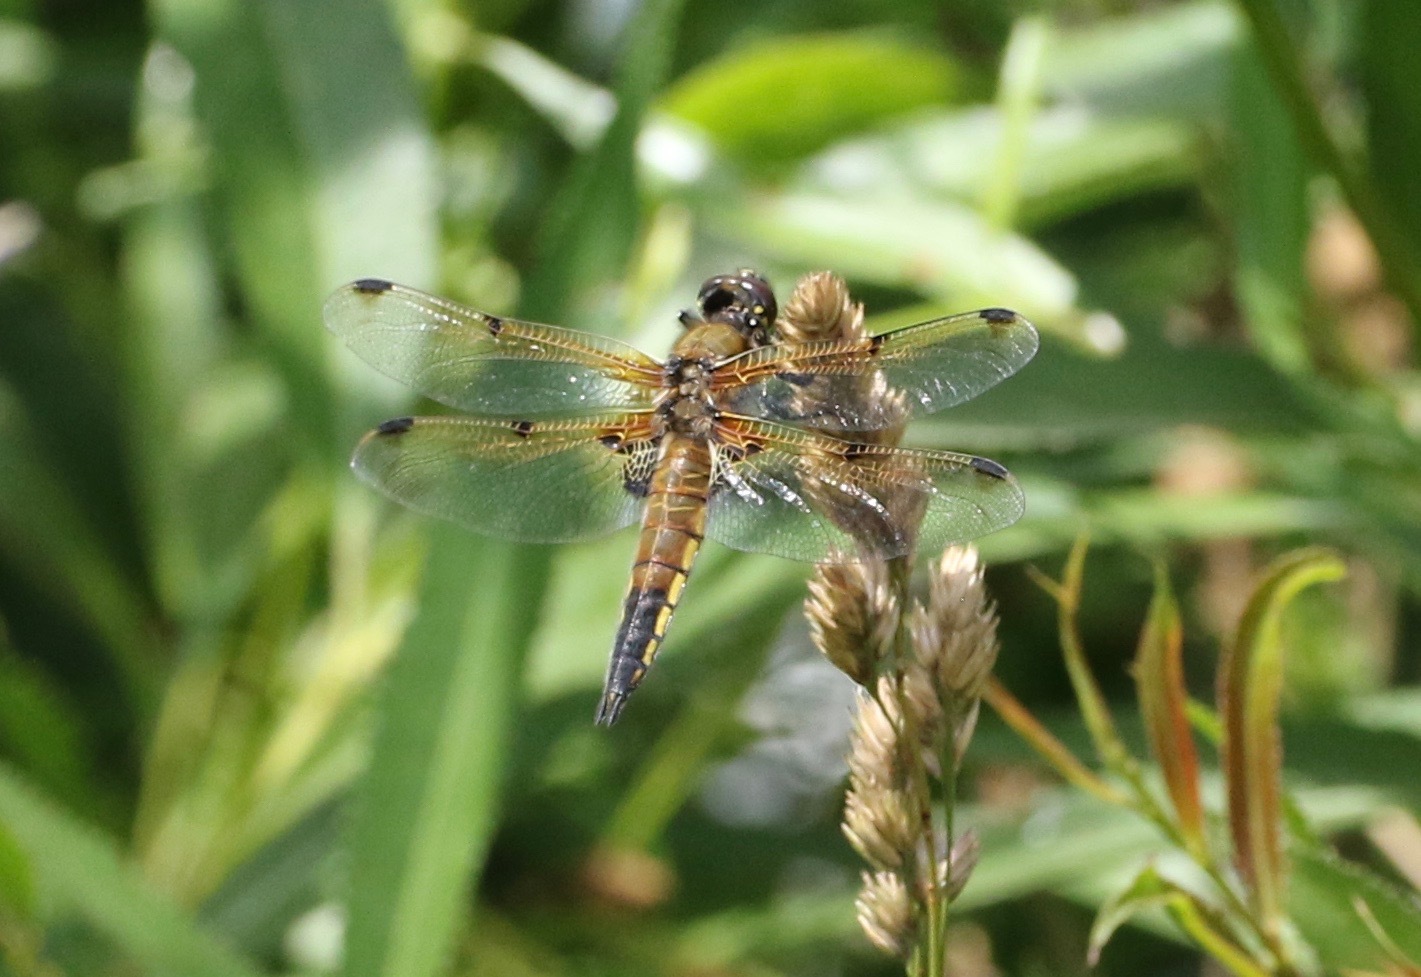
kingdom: Animalia
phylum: Arthropoda
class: Insecta
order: Odonata
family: Libellulidae
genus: Libellula
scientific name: Libellula quadrimaculata
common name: Four-spotted chaser
